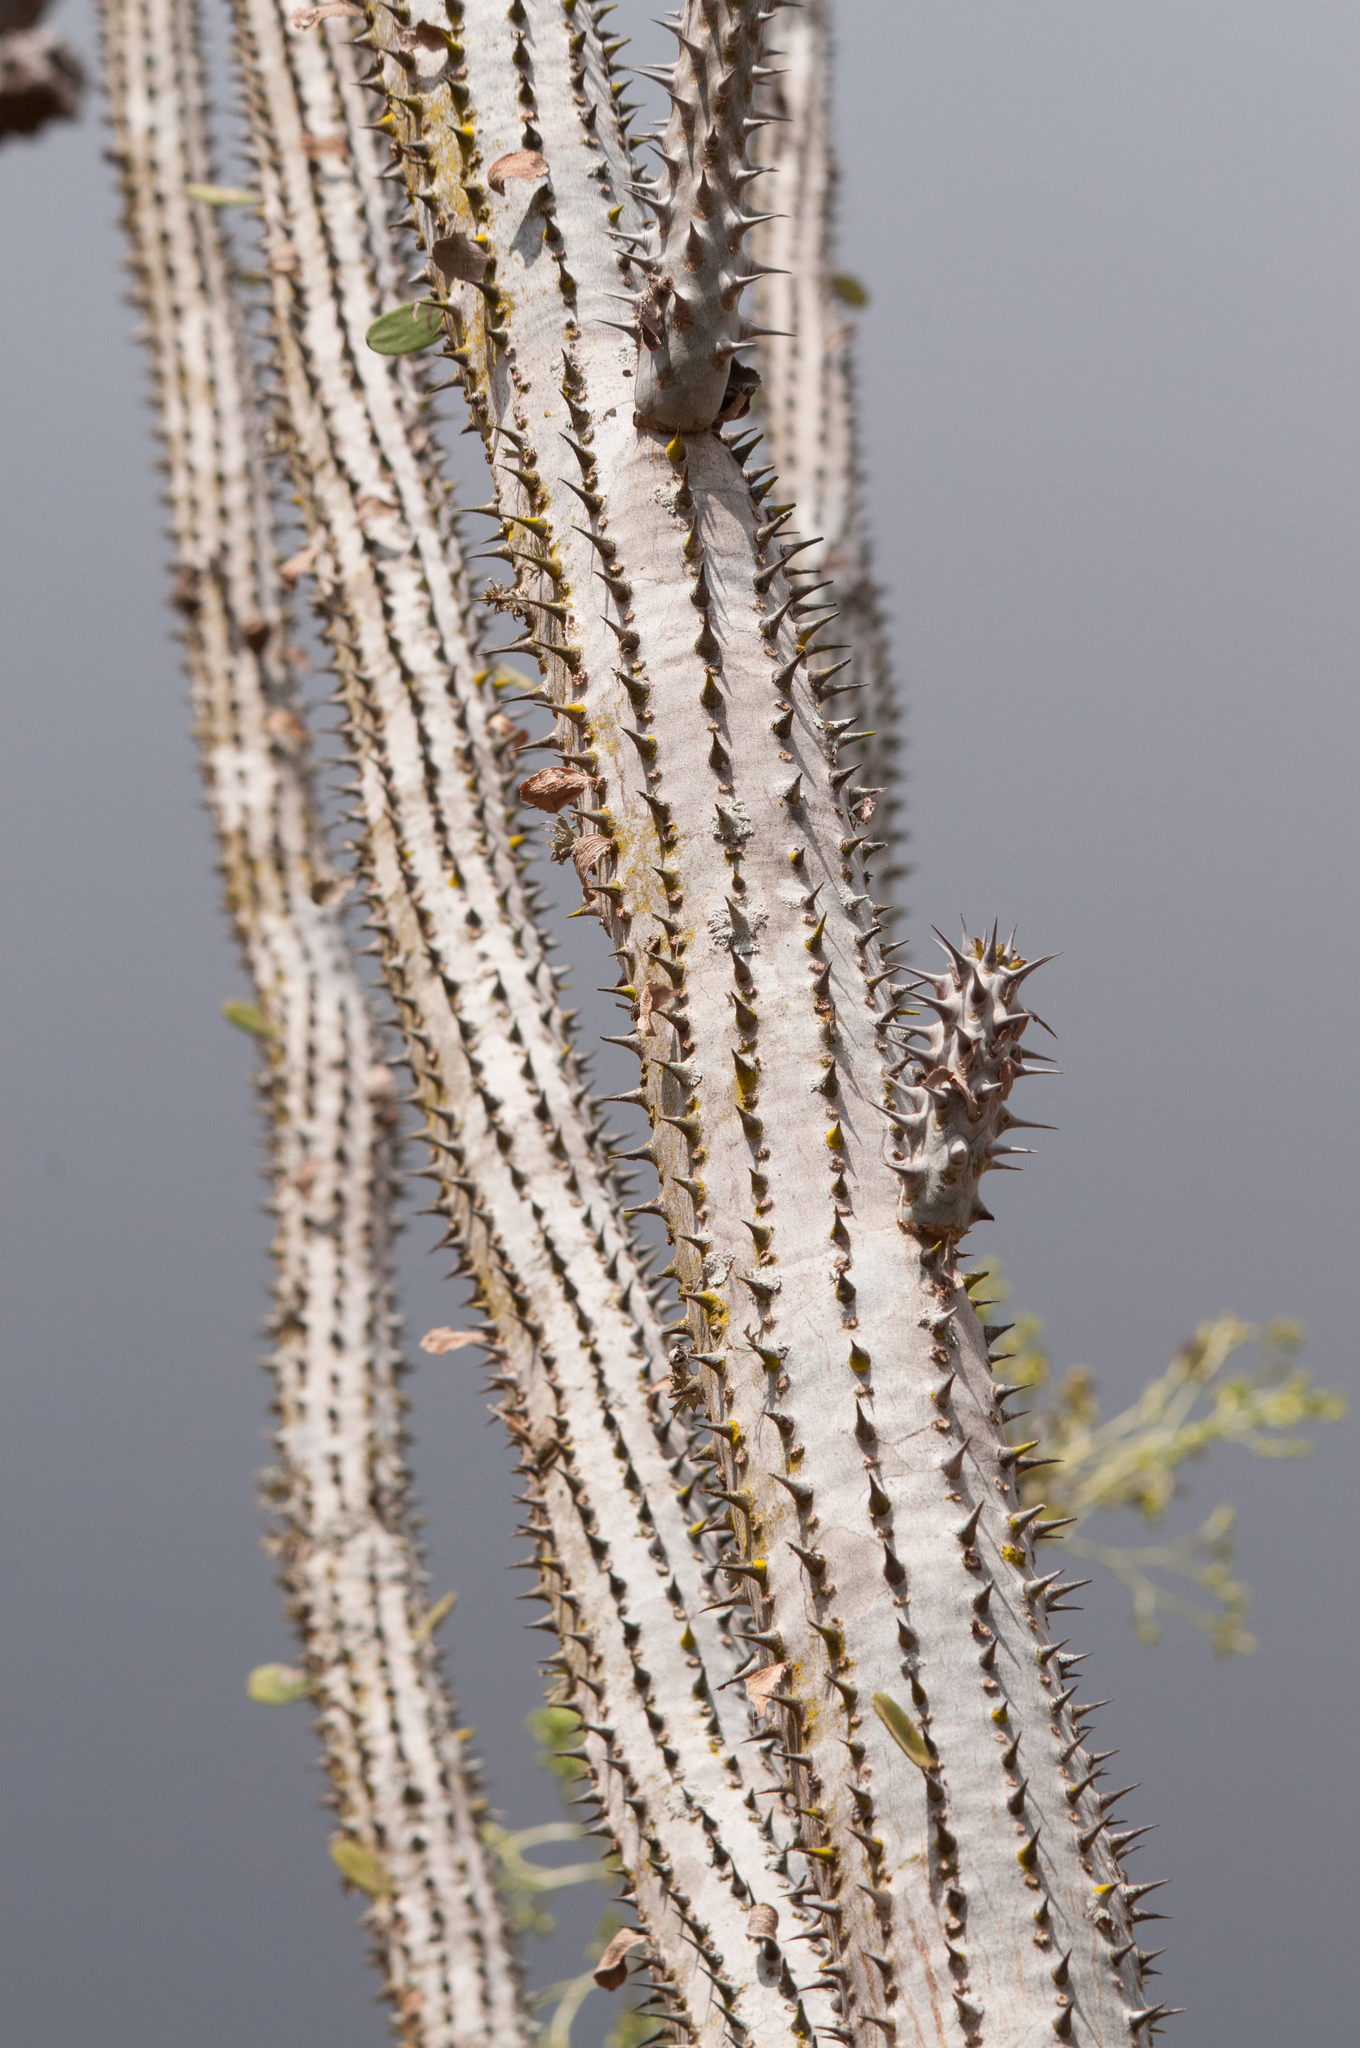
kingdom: Plantae
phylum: Tracheophyta
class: Magnoliopsida
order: Caryophyllales
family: Didiereaceae
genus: Alluaudia
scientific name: Alluaudia procera
